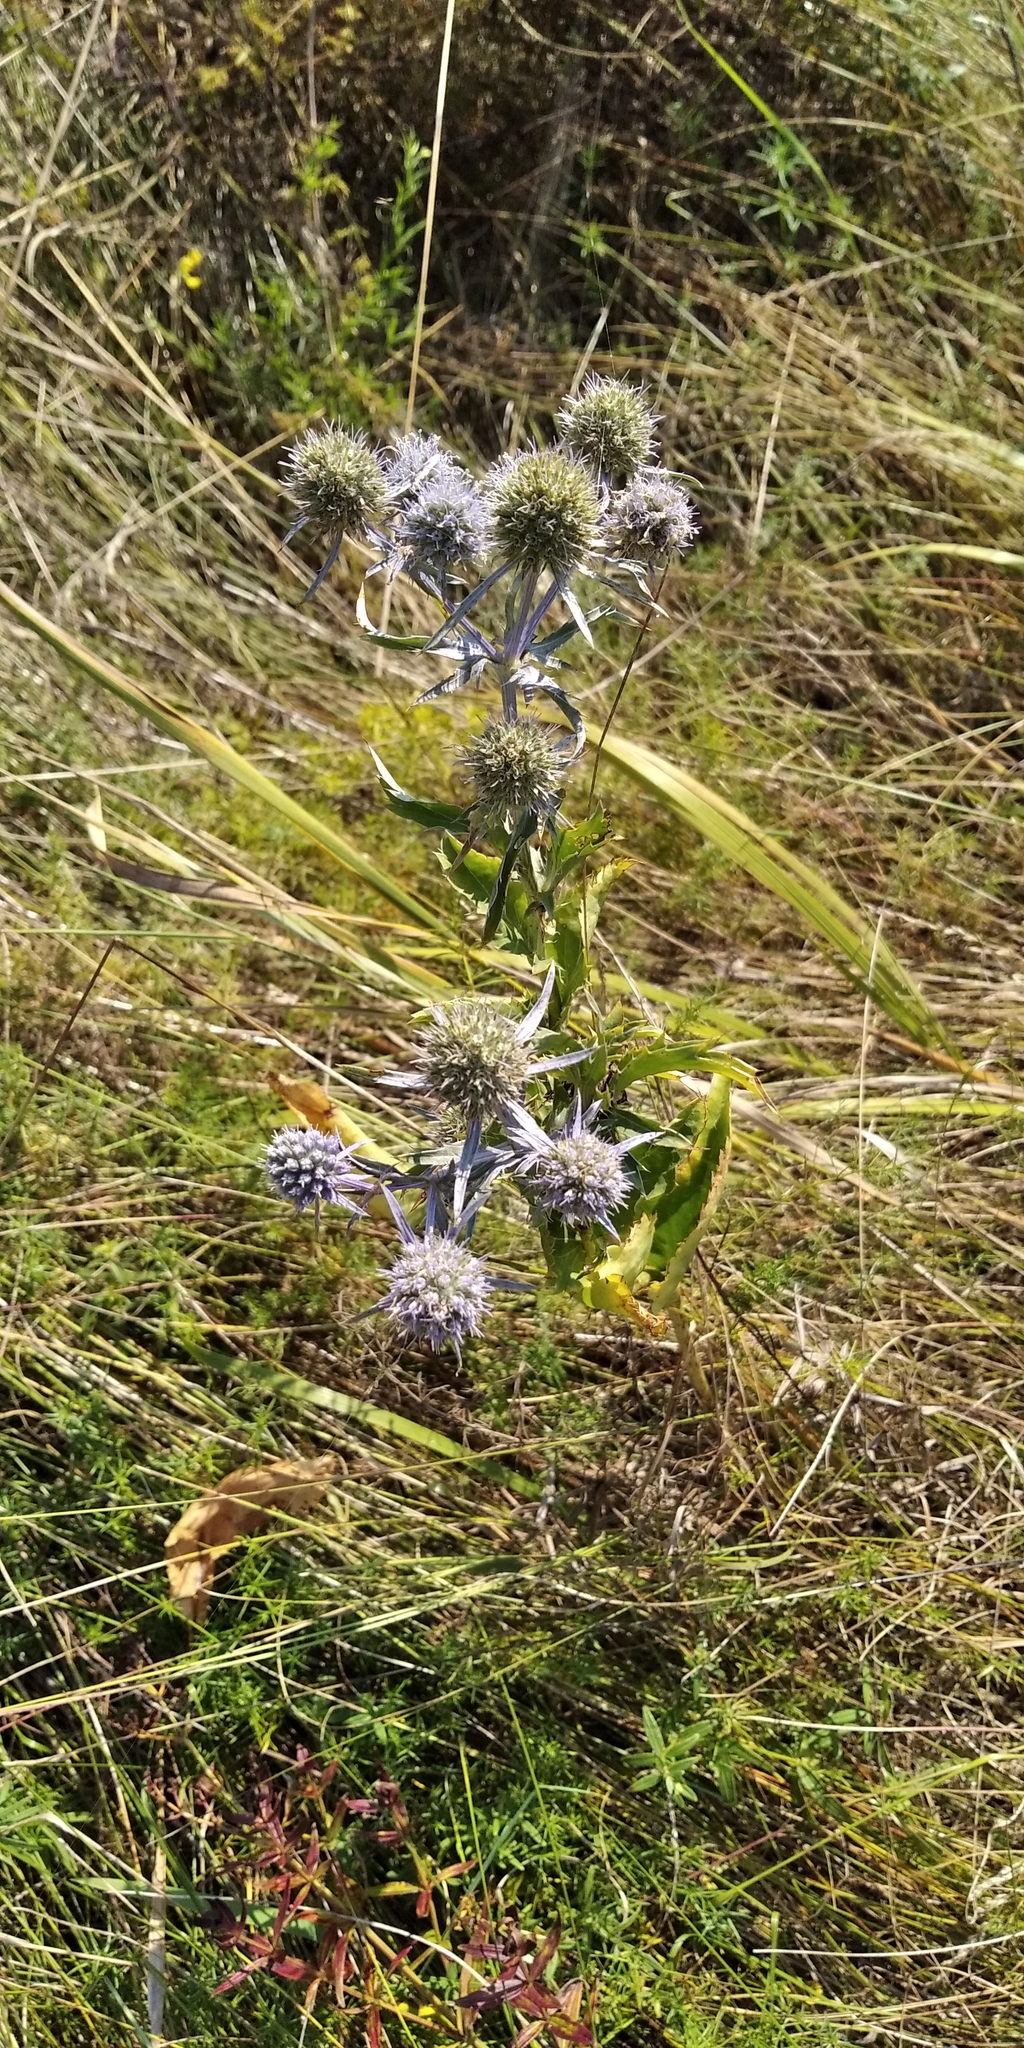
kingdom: Plantae
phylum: Tracheophyta
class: Magnoliopsida
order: Apiales
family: Apiaceae
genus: Eryngium
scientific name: Eryngium planum
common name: Blue eryngo
